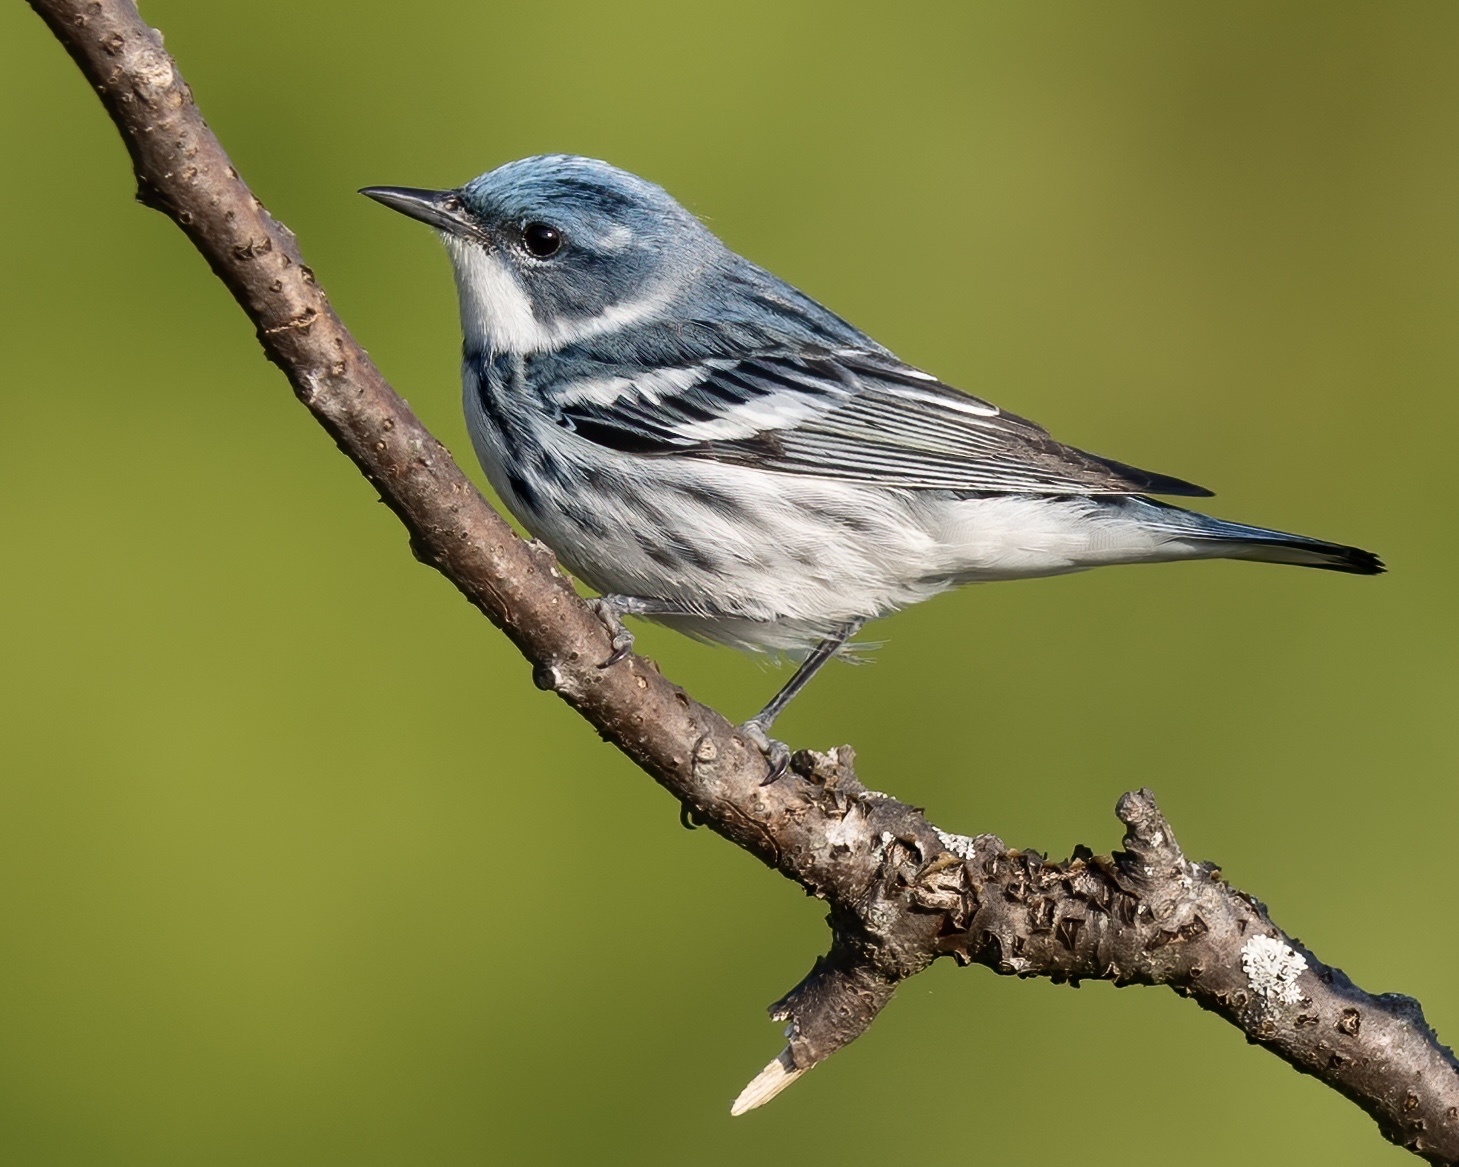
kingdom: Animalia
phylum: Chordata
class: Aves
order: Passeriformes
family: Parulidae
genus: Setophaga
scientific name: Setophaga cerulea
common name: Cerulean warbler
